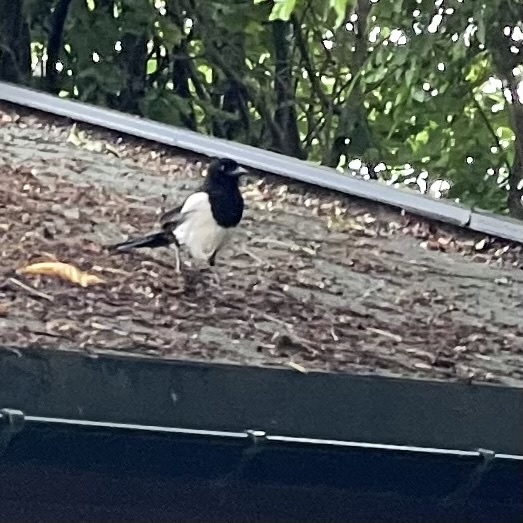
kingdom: Animalia
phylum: Chordata
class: Aves
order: Passeriformes
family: Corvidae
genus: Pica
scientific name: Pica pica
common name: Eurasian magpie
